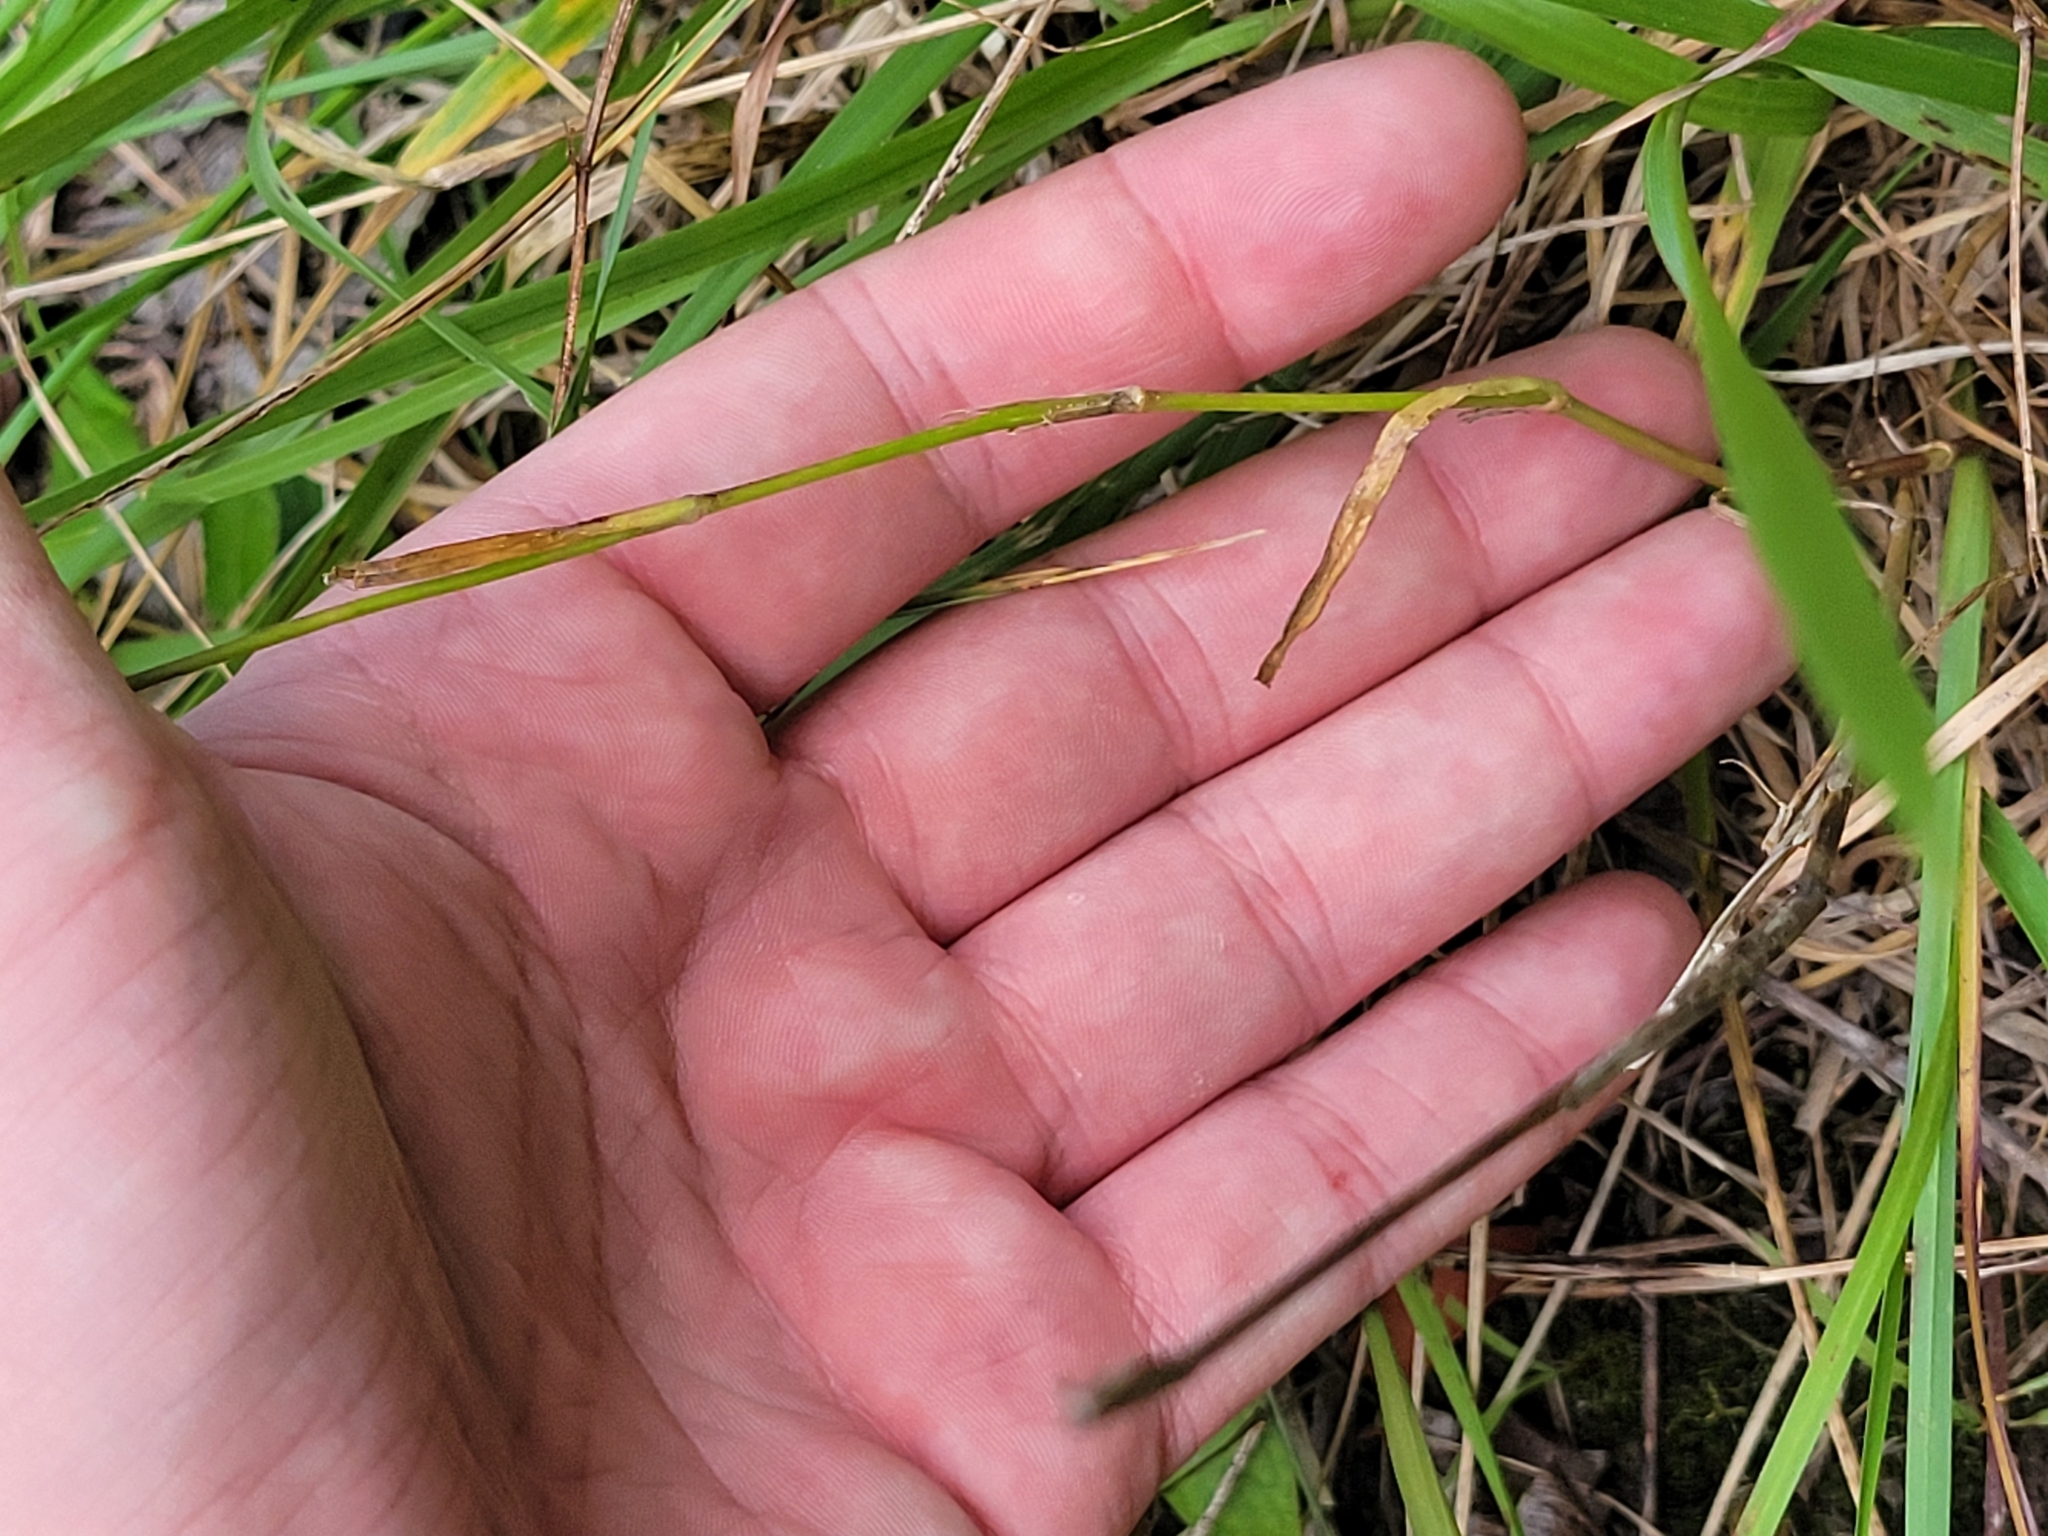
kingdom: Plantae
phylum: Tracheophyta
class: Magnoliopsida
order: Caryophyllales
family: Caryophyllaceae
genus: Dianthus
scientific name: Dianthus armeria
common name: Deptford pink
